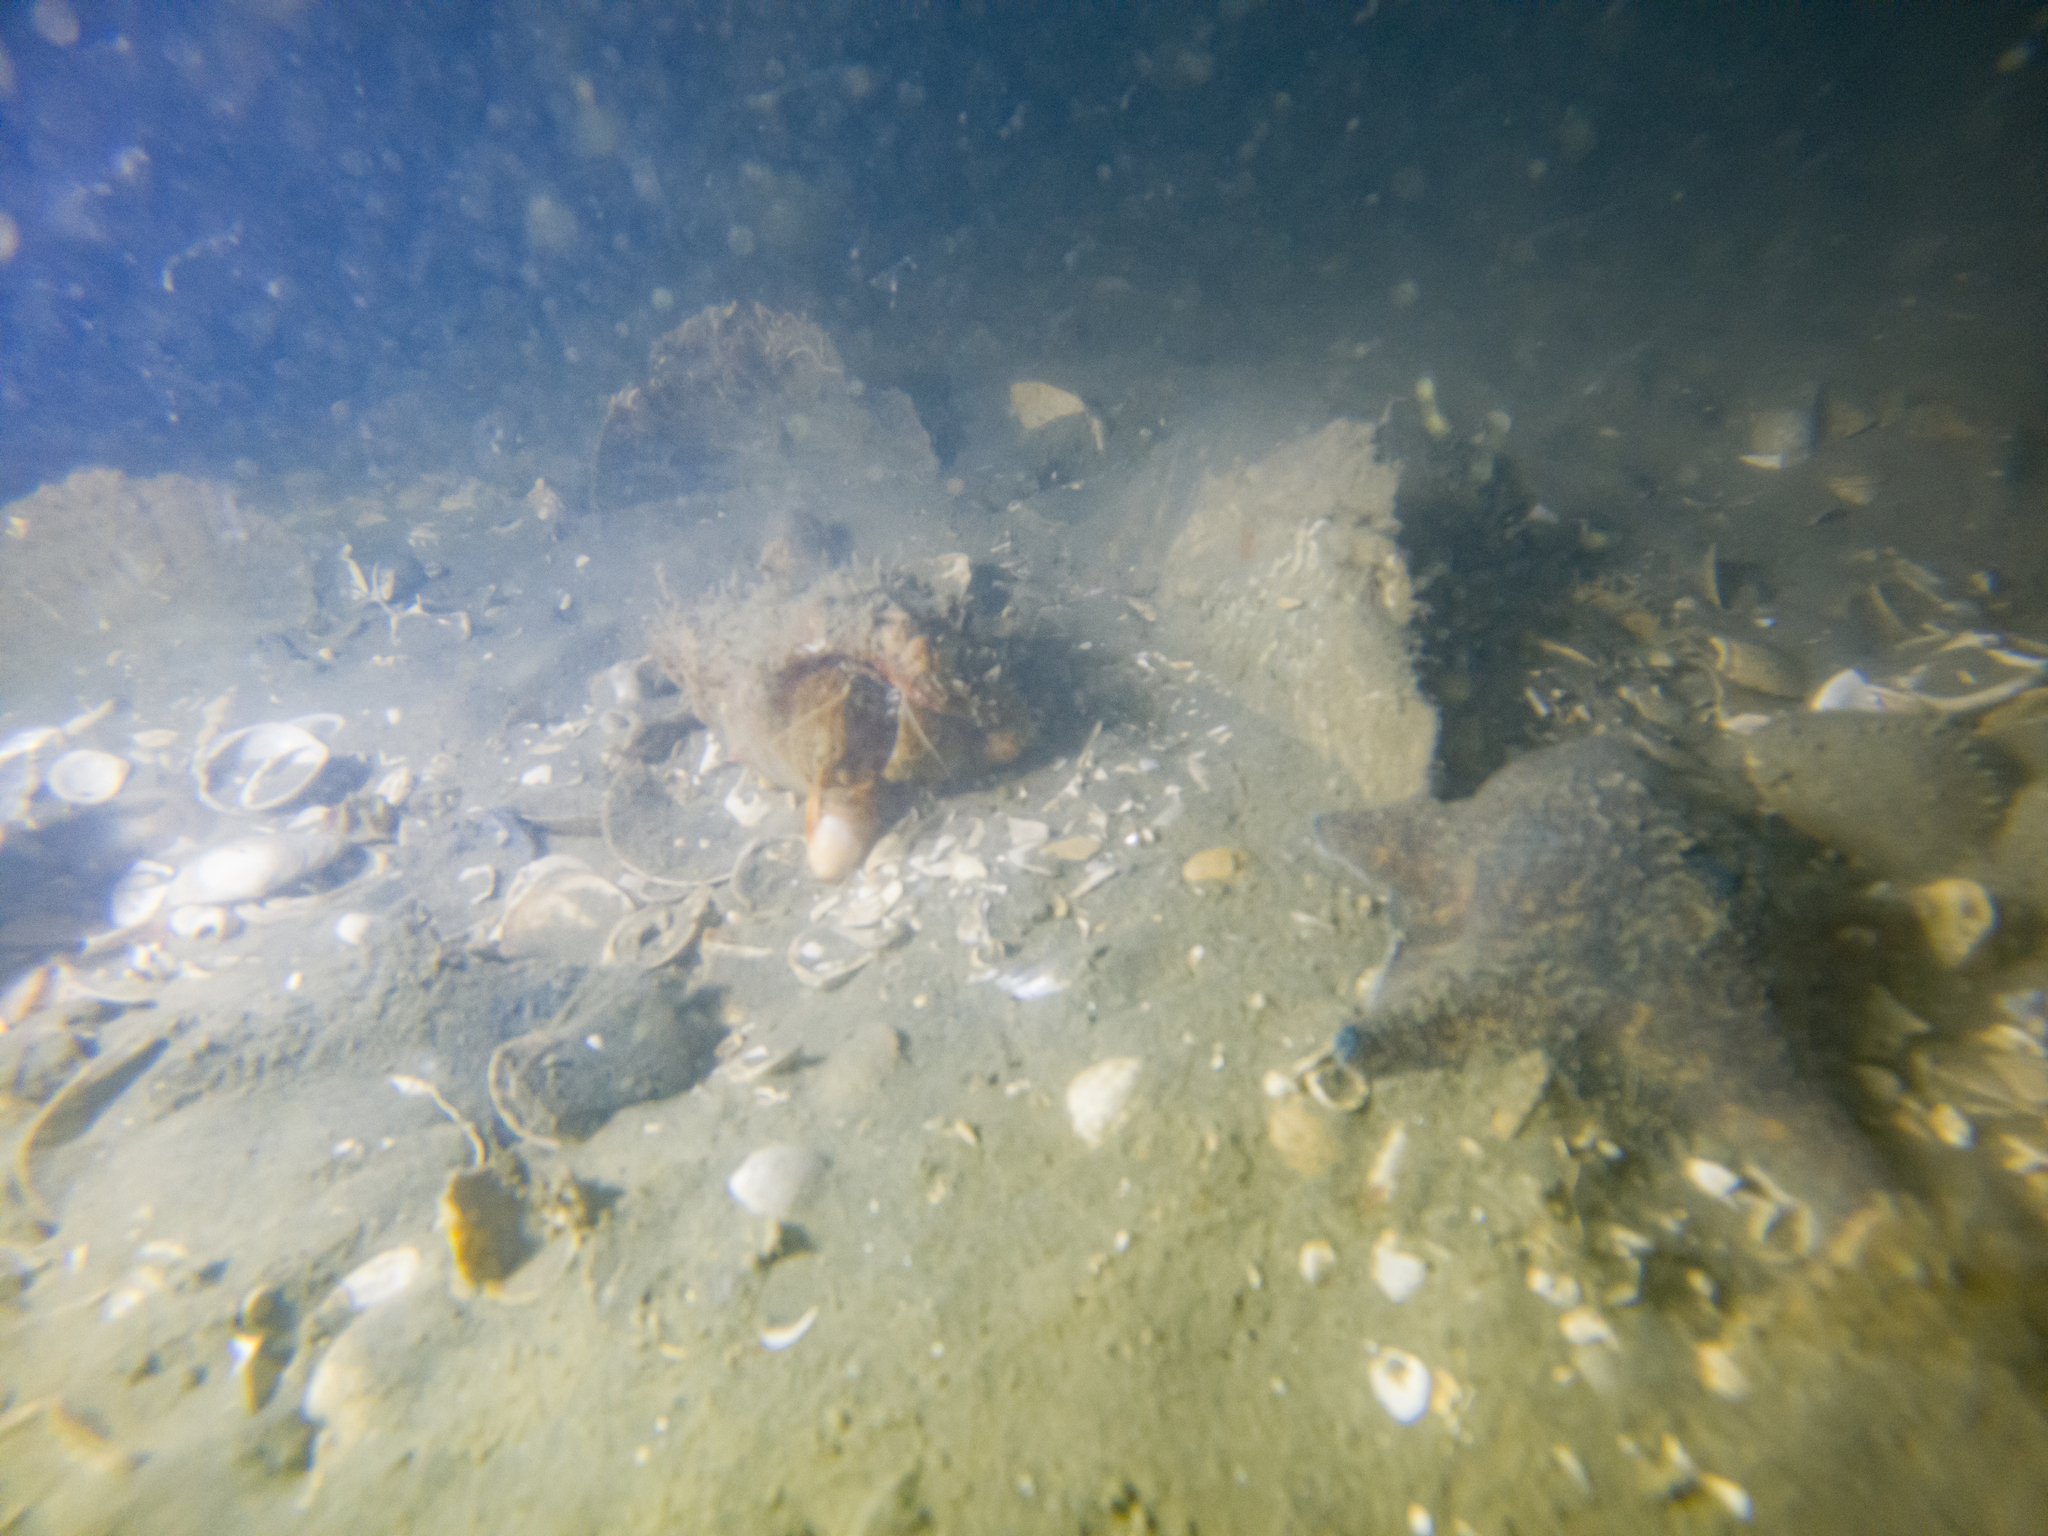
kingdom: Animalia
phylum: Echinodermata
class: Asteroidea
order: Valvatida
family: Asterinidae
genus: Patiriella
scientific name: Patiriella regularis
